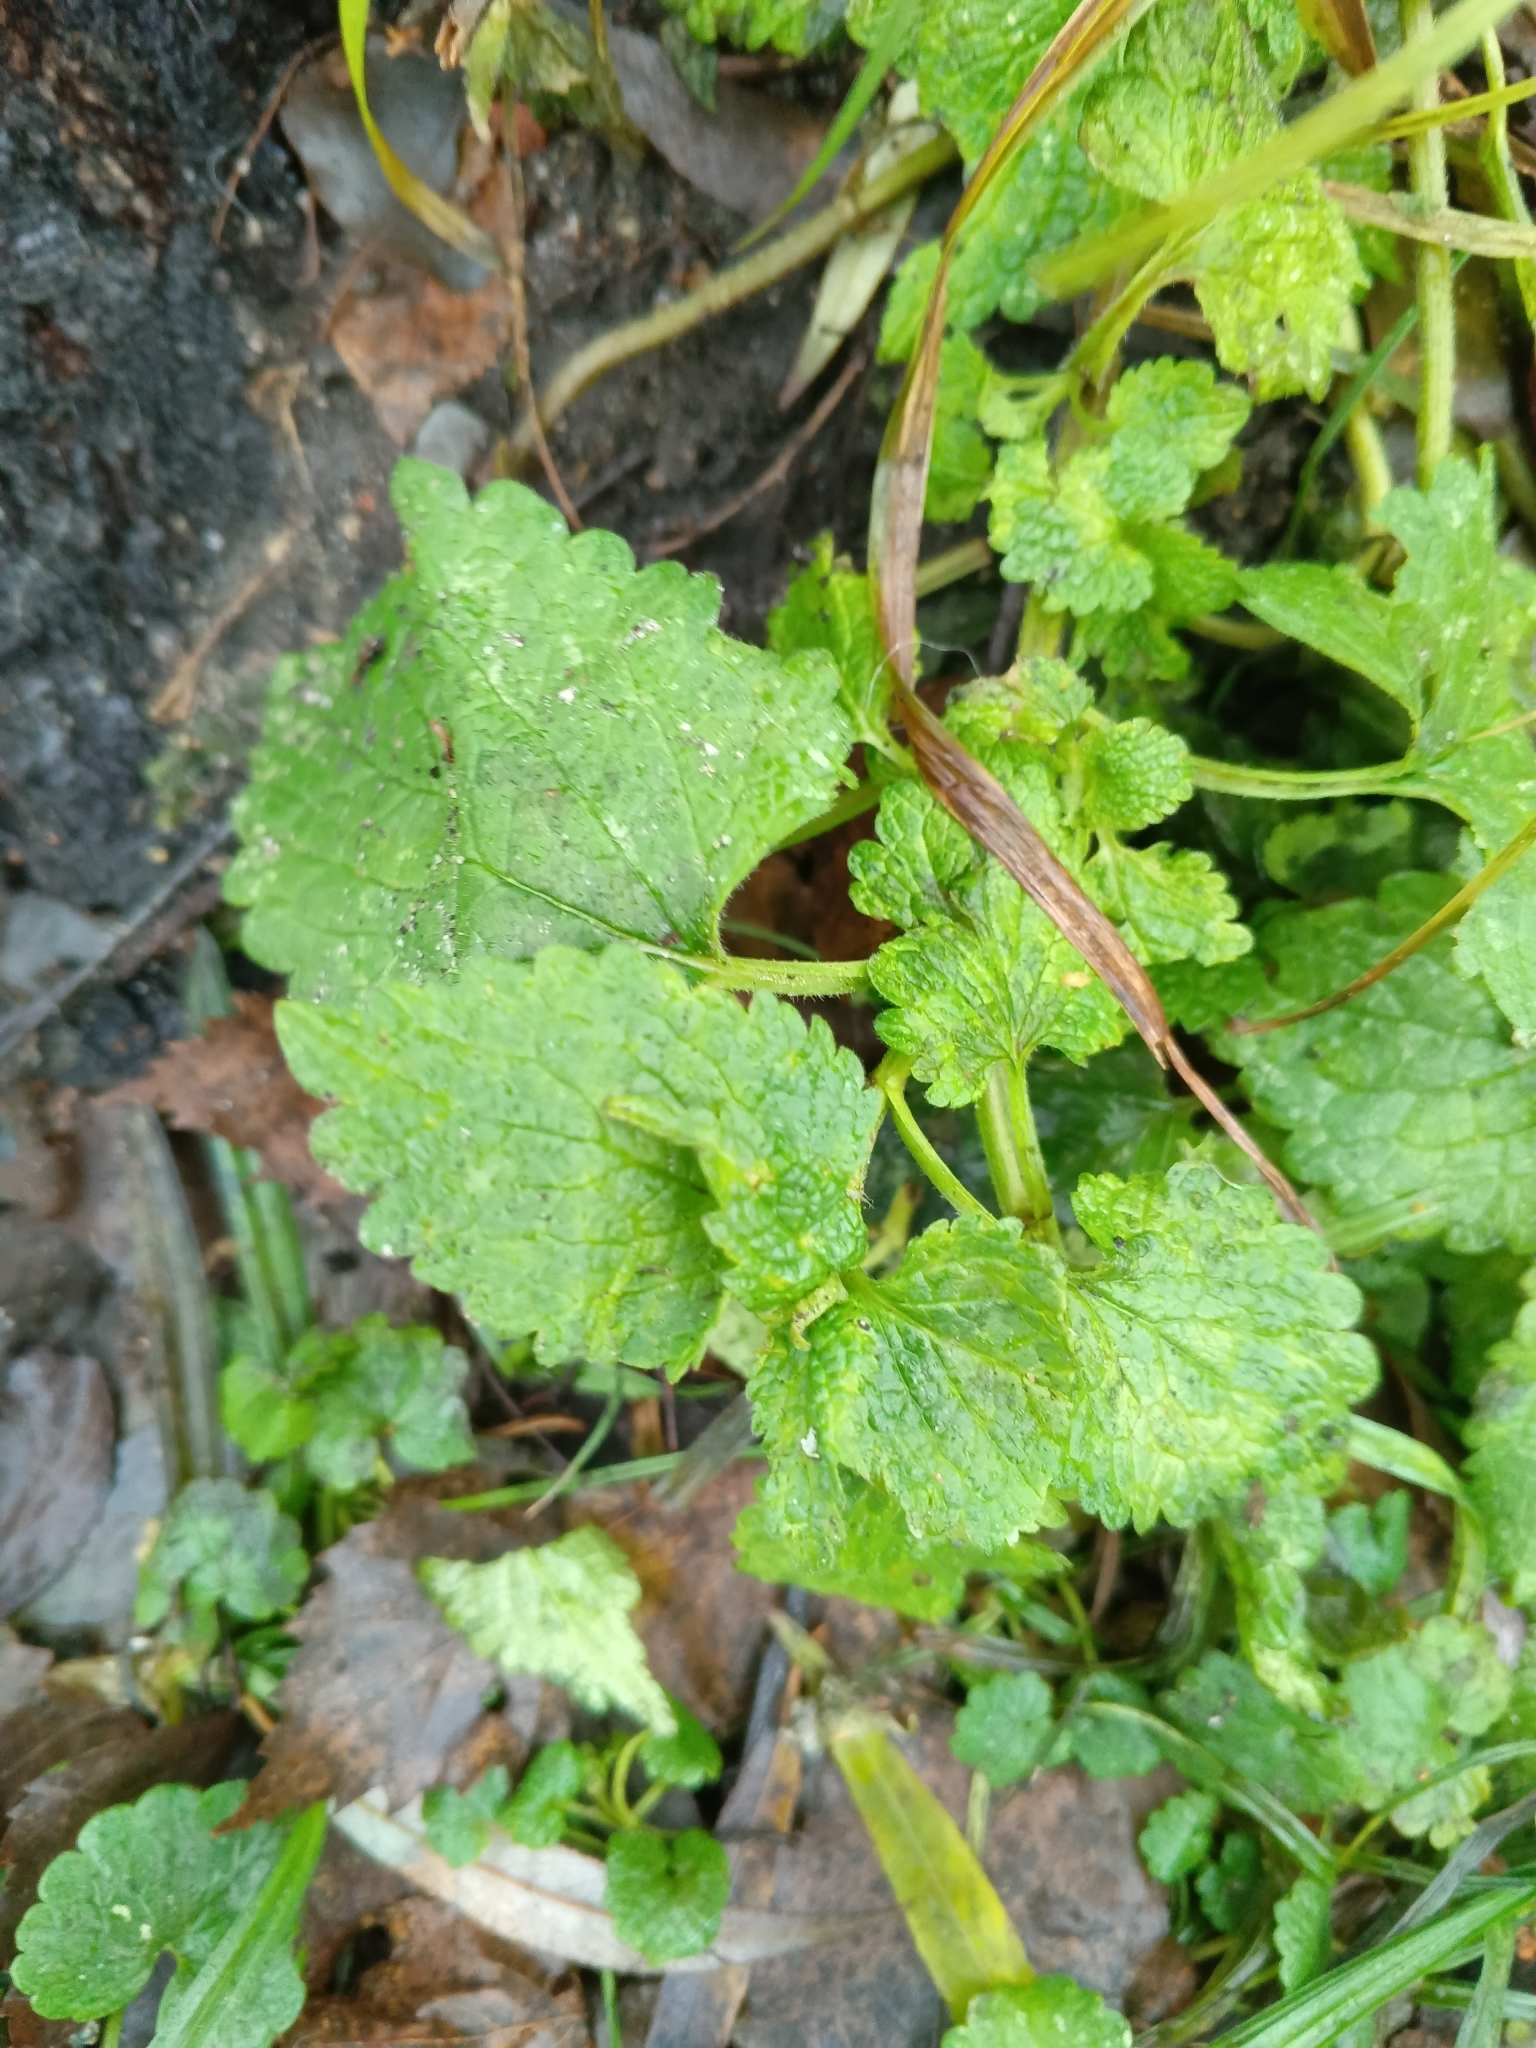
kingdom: Plantae
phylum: Tracheophyta
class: Magnoliopsida
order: Lamiales
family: Lamiaceae
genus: Lamium
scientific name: Lamium album
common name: White dead-nettle
